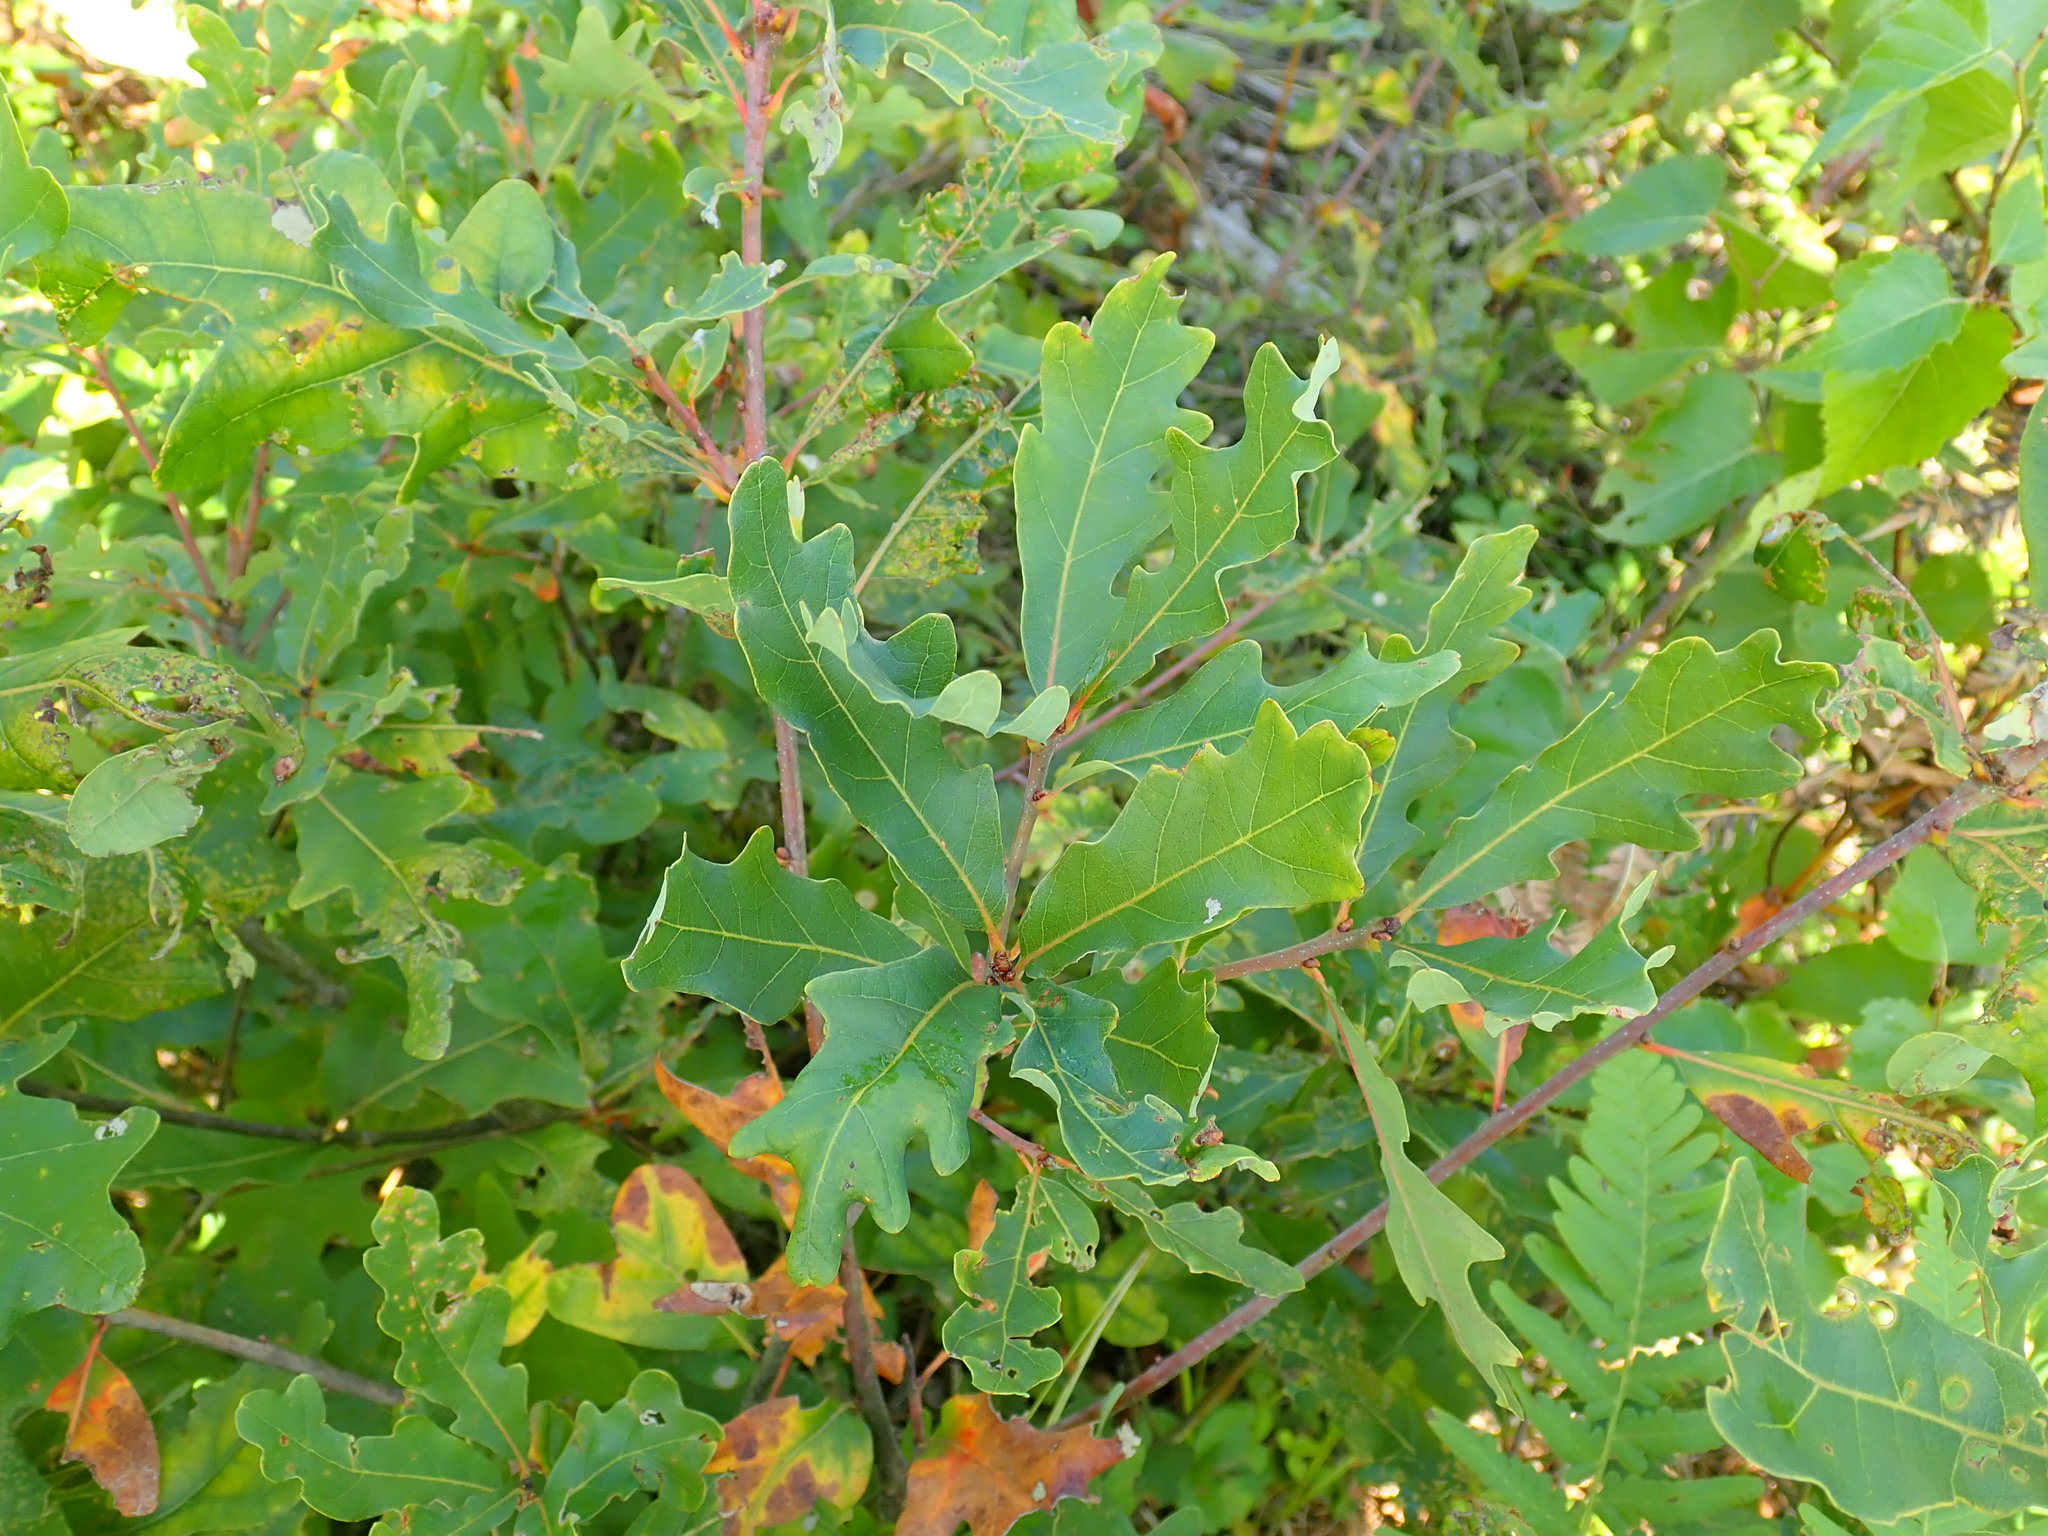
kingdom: Plantae
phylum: Tracheophyta
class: Magnoliopsida
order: Fagales
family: Fagaceae
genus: Quercus
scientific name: Quercus alba
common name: White oak
